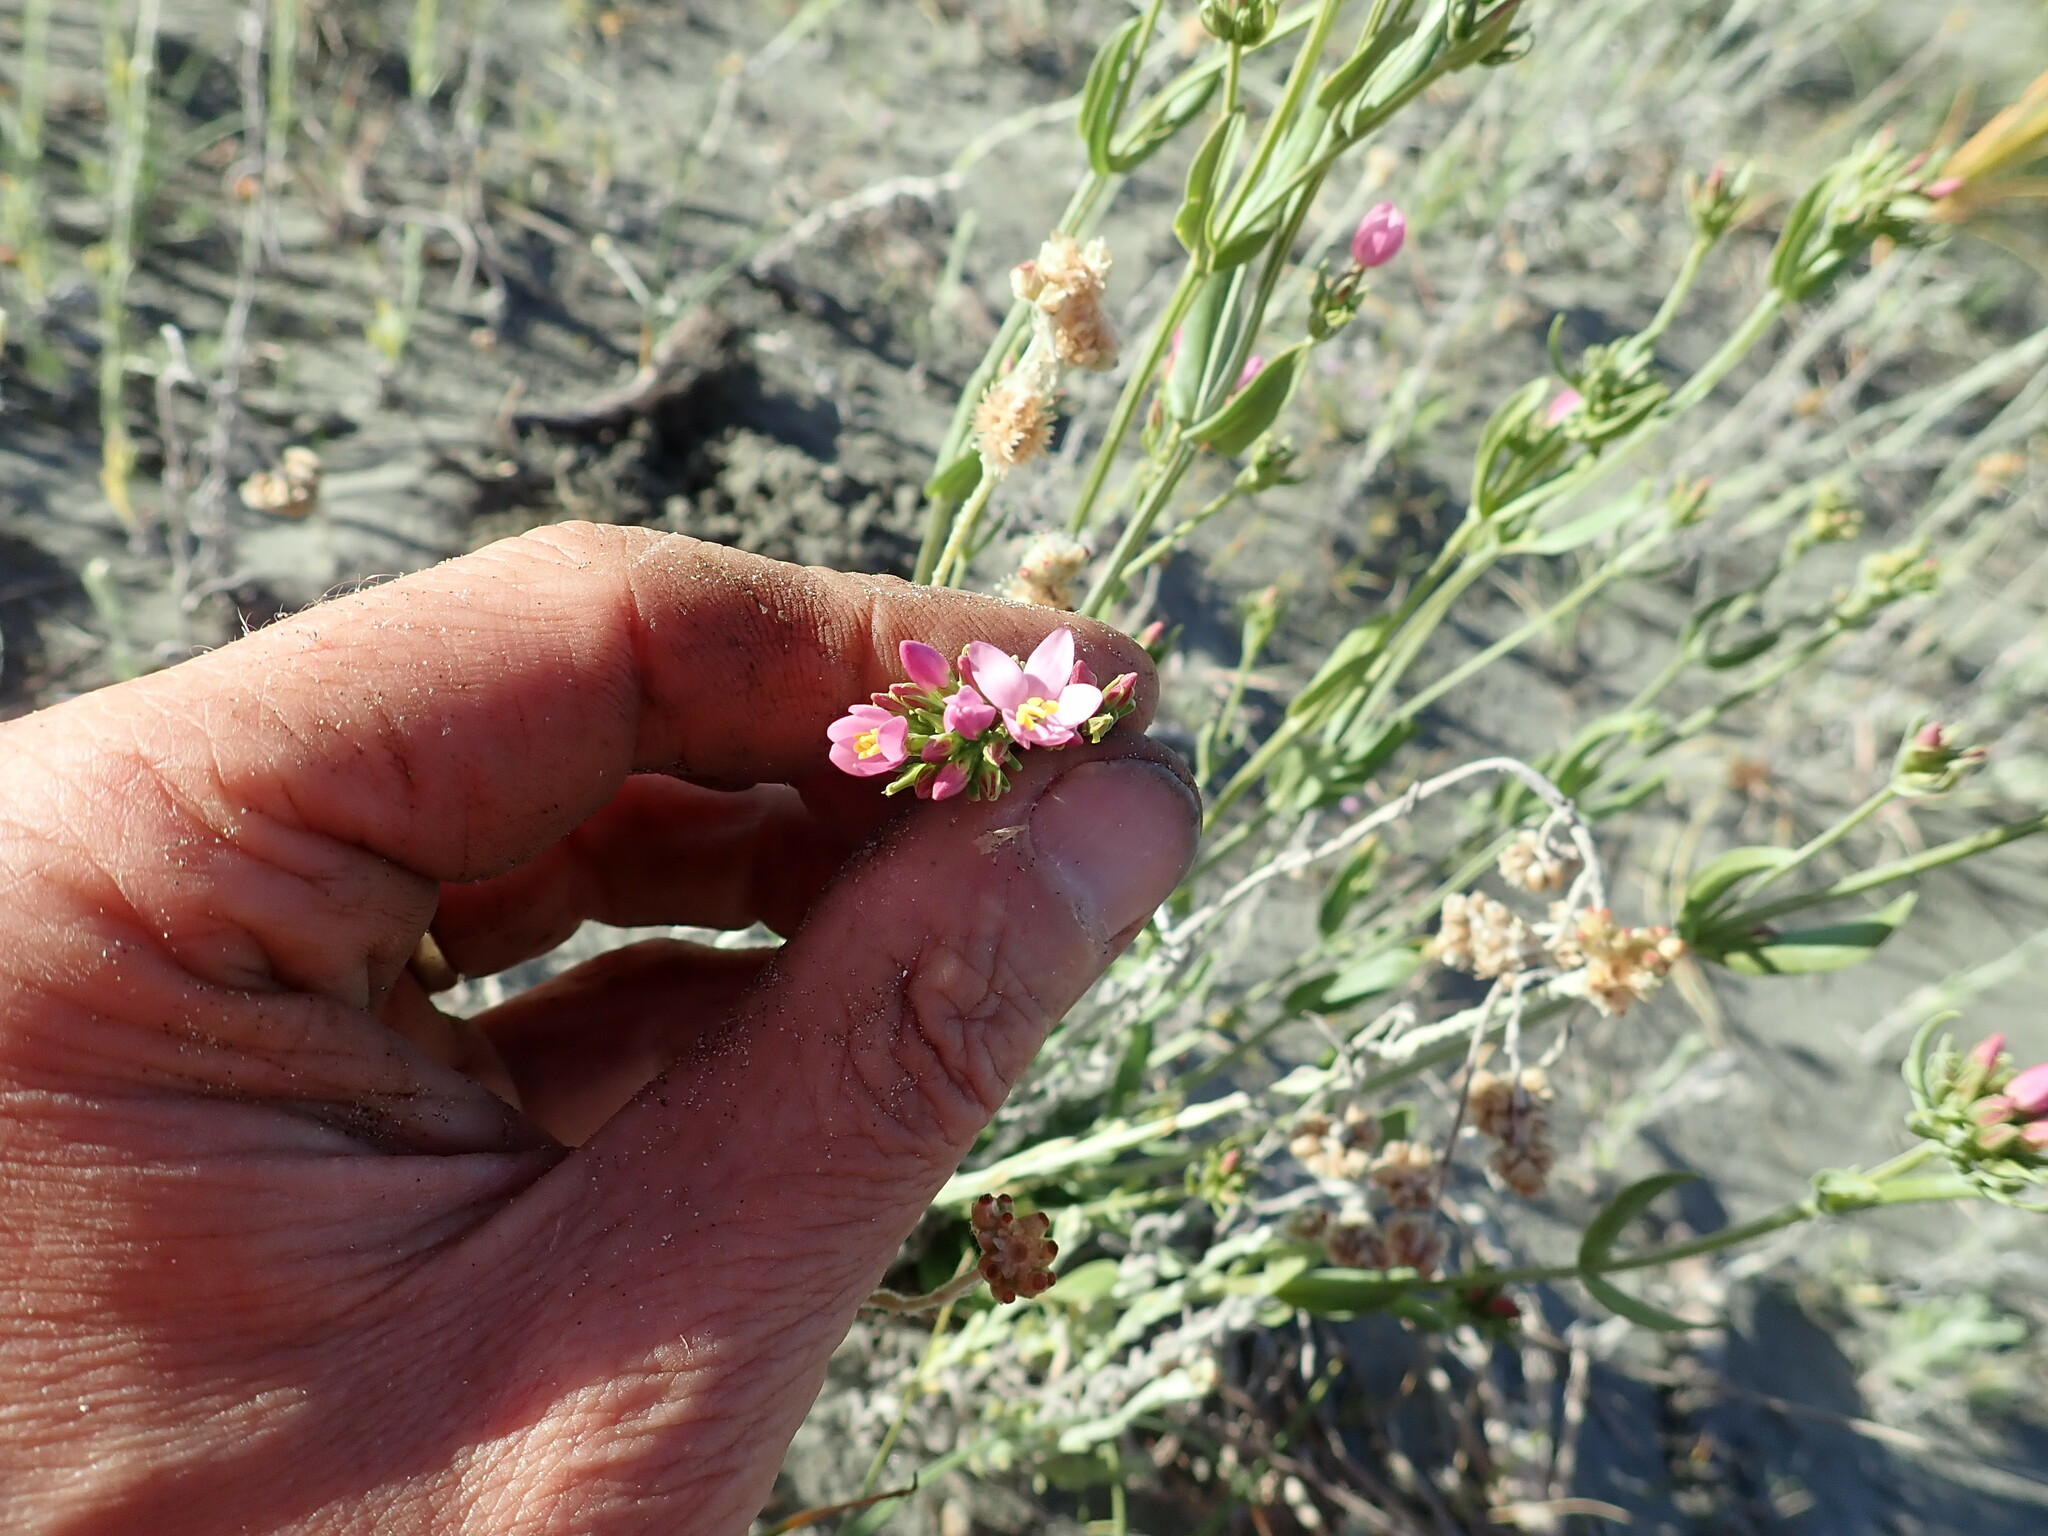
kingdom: Plantae
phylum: Tracheophyta
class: Magnoliopsida
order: Gentianales
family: Gentianaceae
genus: Centaurium
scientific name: Centaurium erythraea
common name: Common centaury
